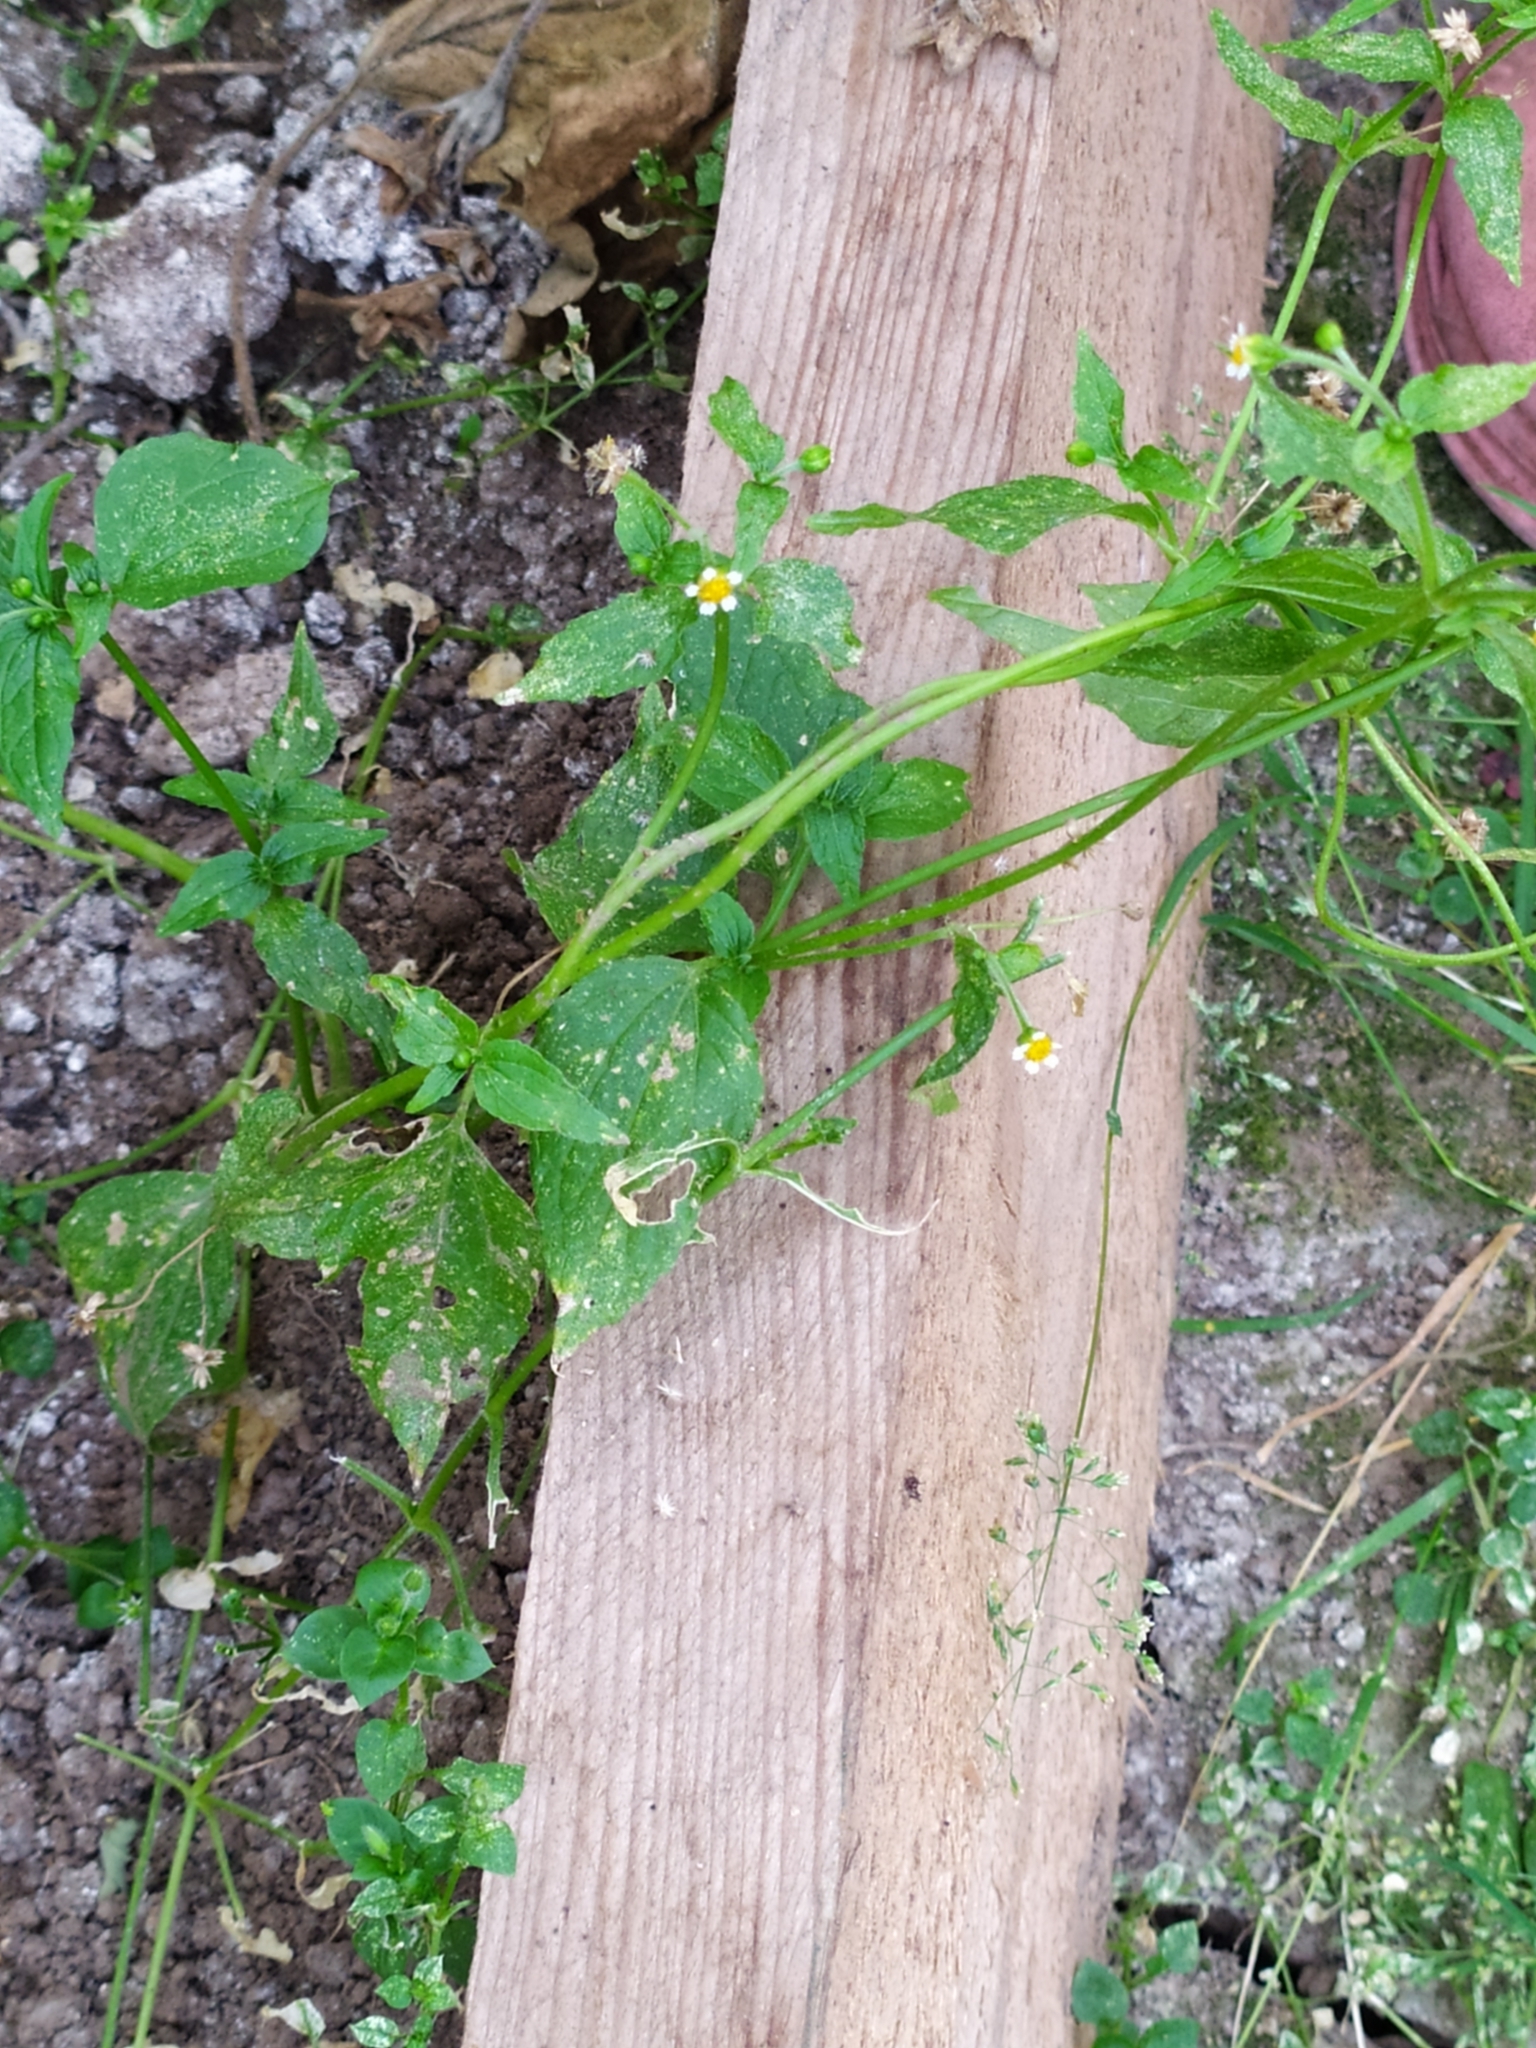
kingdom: Plantae
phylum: Tracheophyta
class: Magnoliopsida
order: Asterales
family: Asteraceae
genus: Galinsoga
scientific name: Galinsoga parviflora
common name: Gallant soldier
